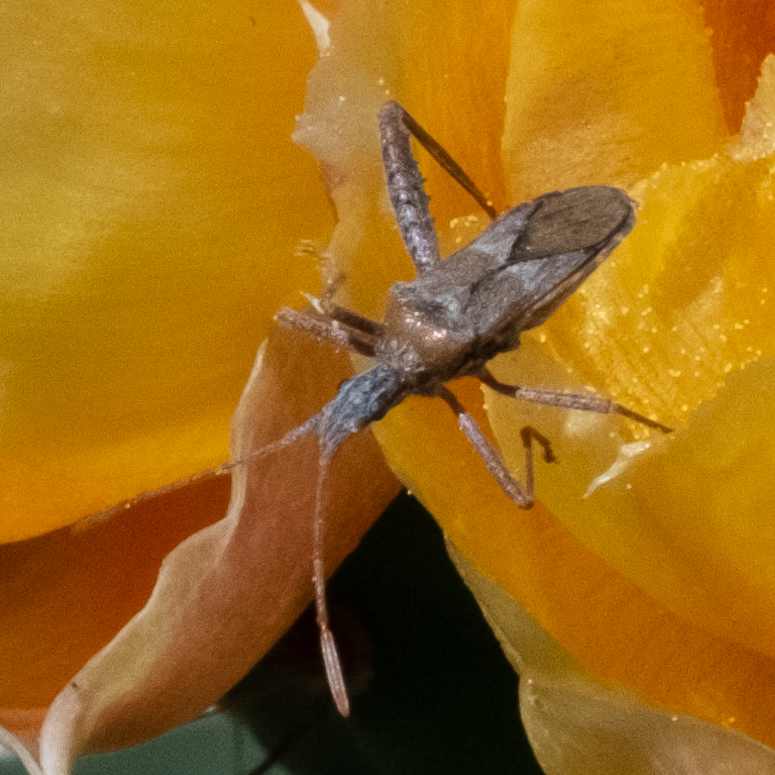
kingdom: Animalia
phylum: Arthropoda
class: Insecta
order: Hemiptera
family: Coreidae
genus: Narnia
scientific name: Narnia inornata
